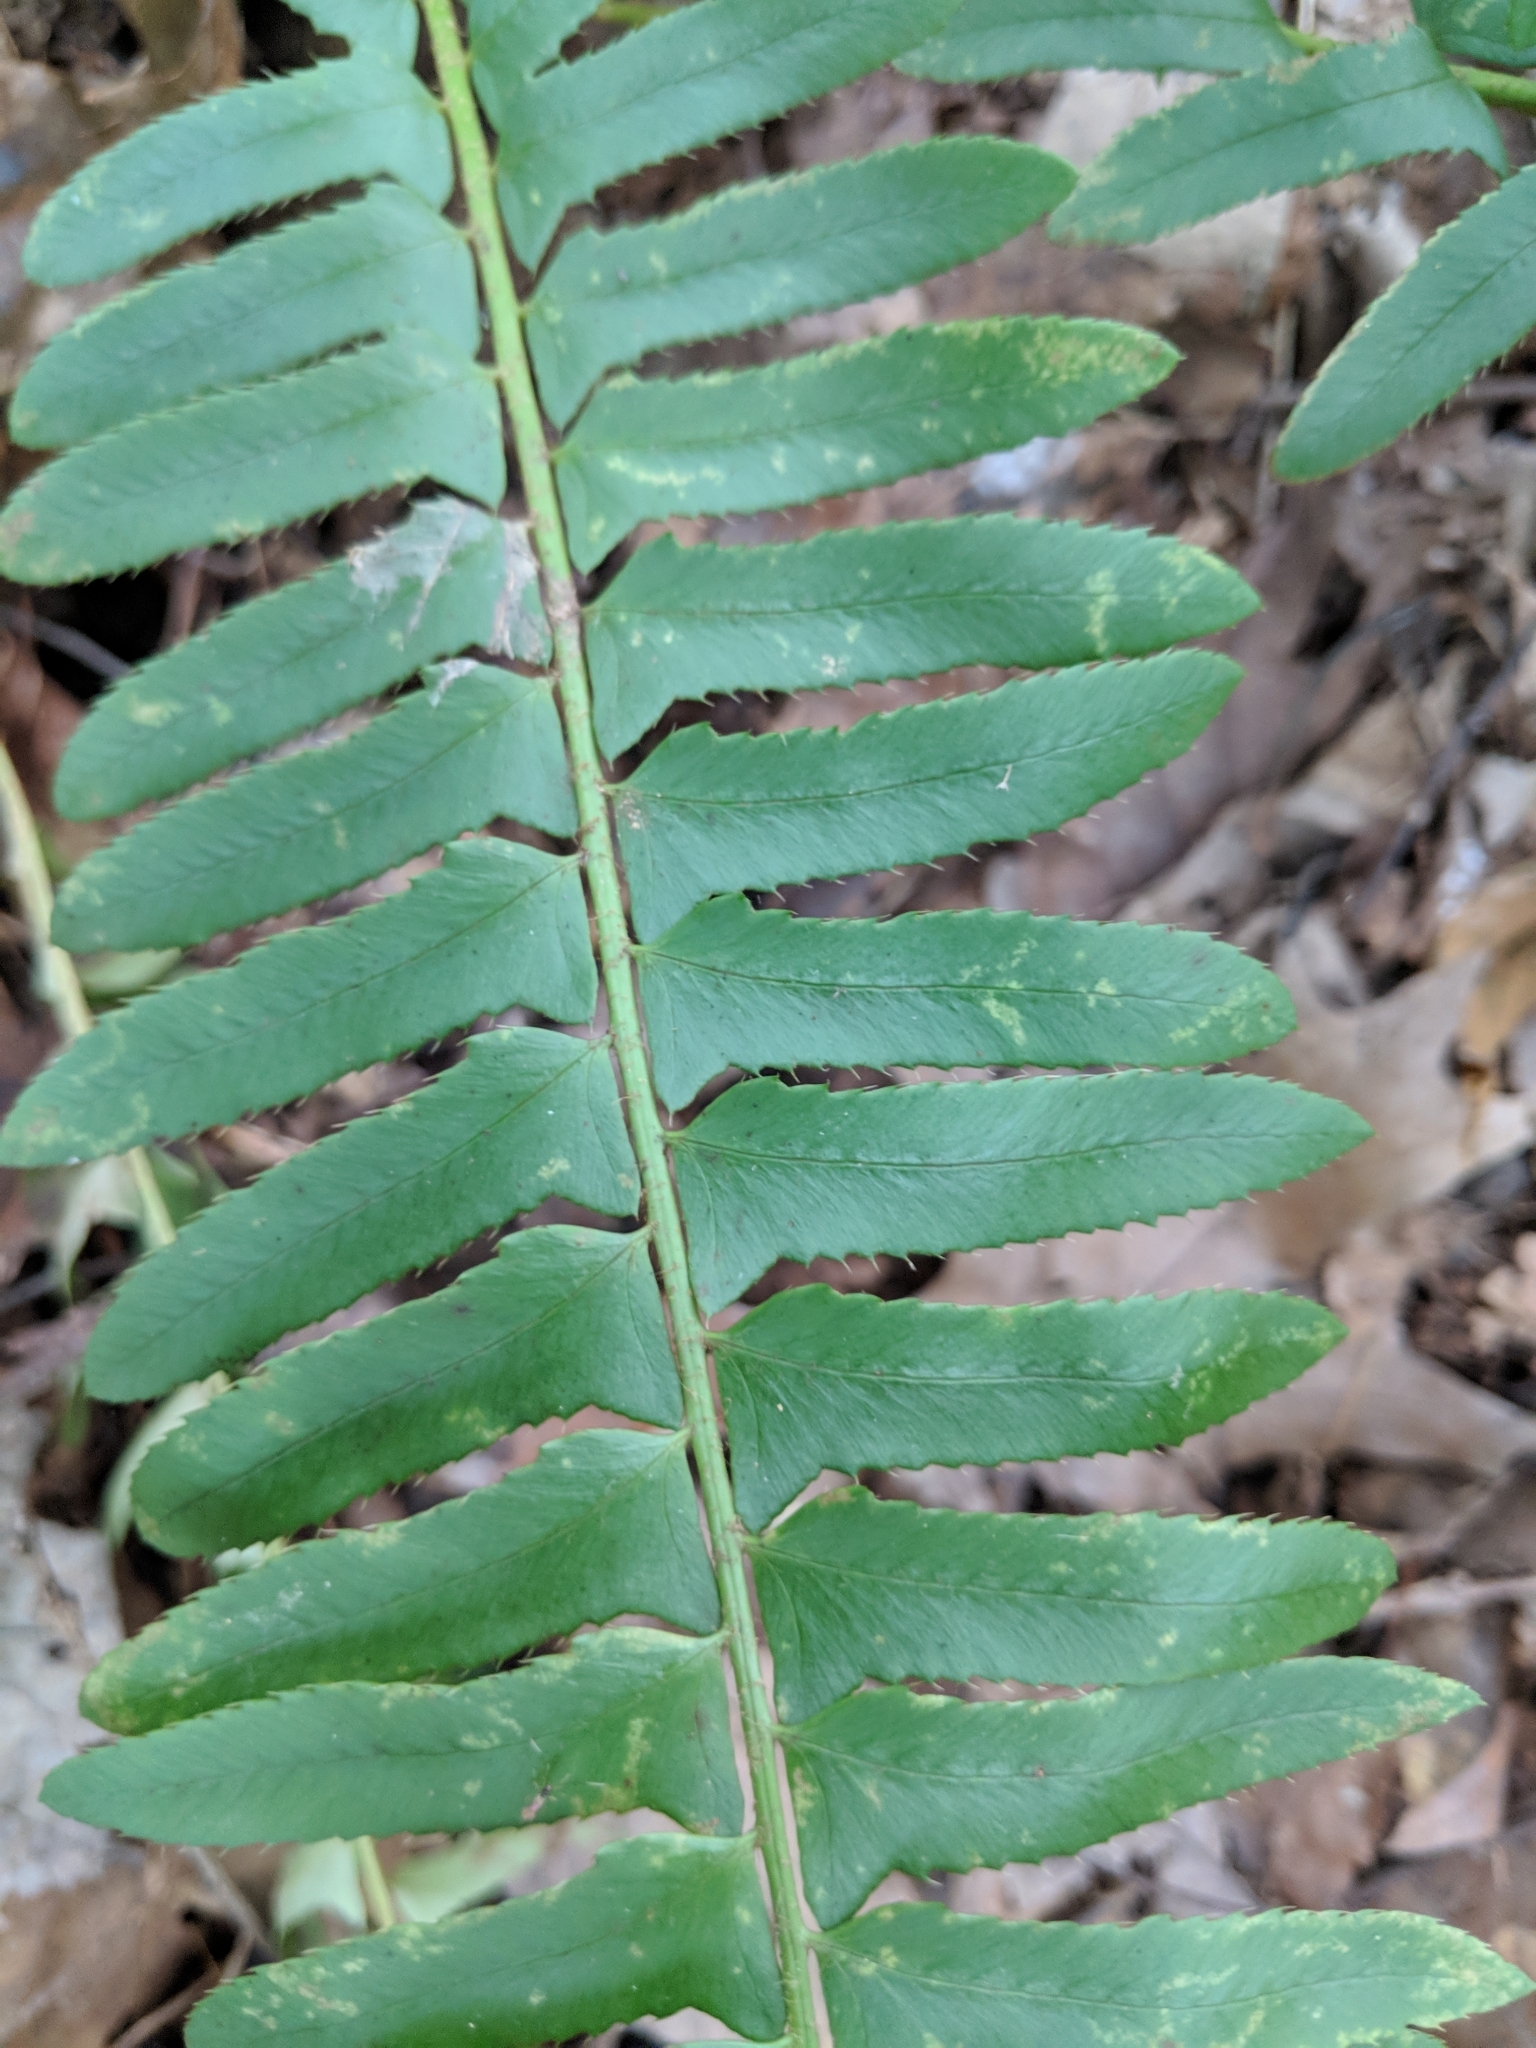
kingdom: Plantae
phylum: Tracheophyta
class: Polypodiopsida
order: Polypodiales
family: Dryopteridaceae
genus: Polystichum
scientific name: Polystichum acrostichoides
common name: Christmas fern
